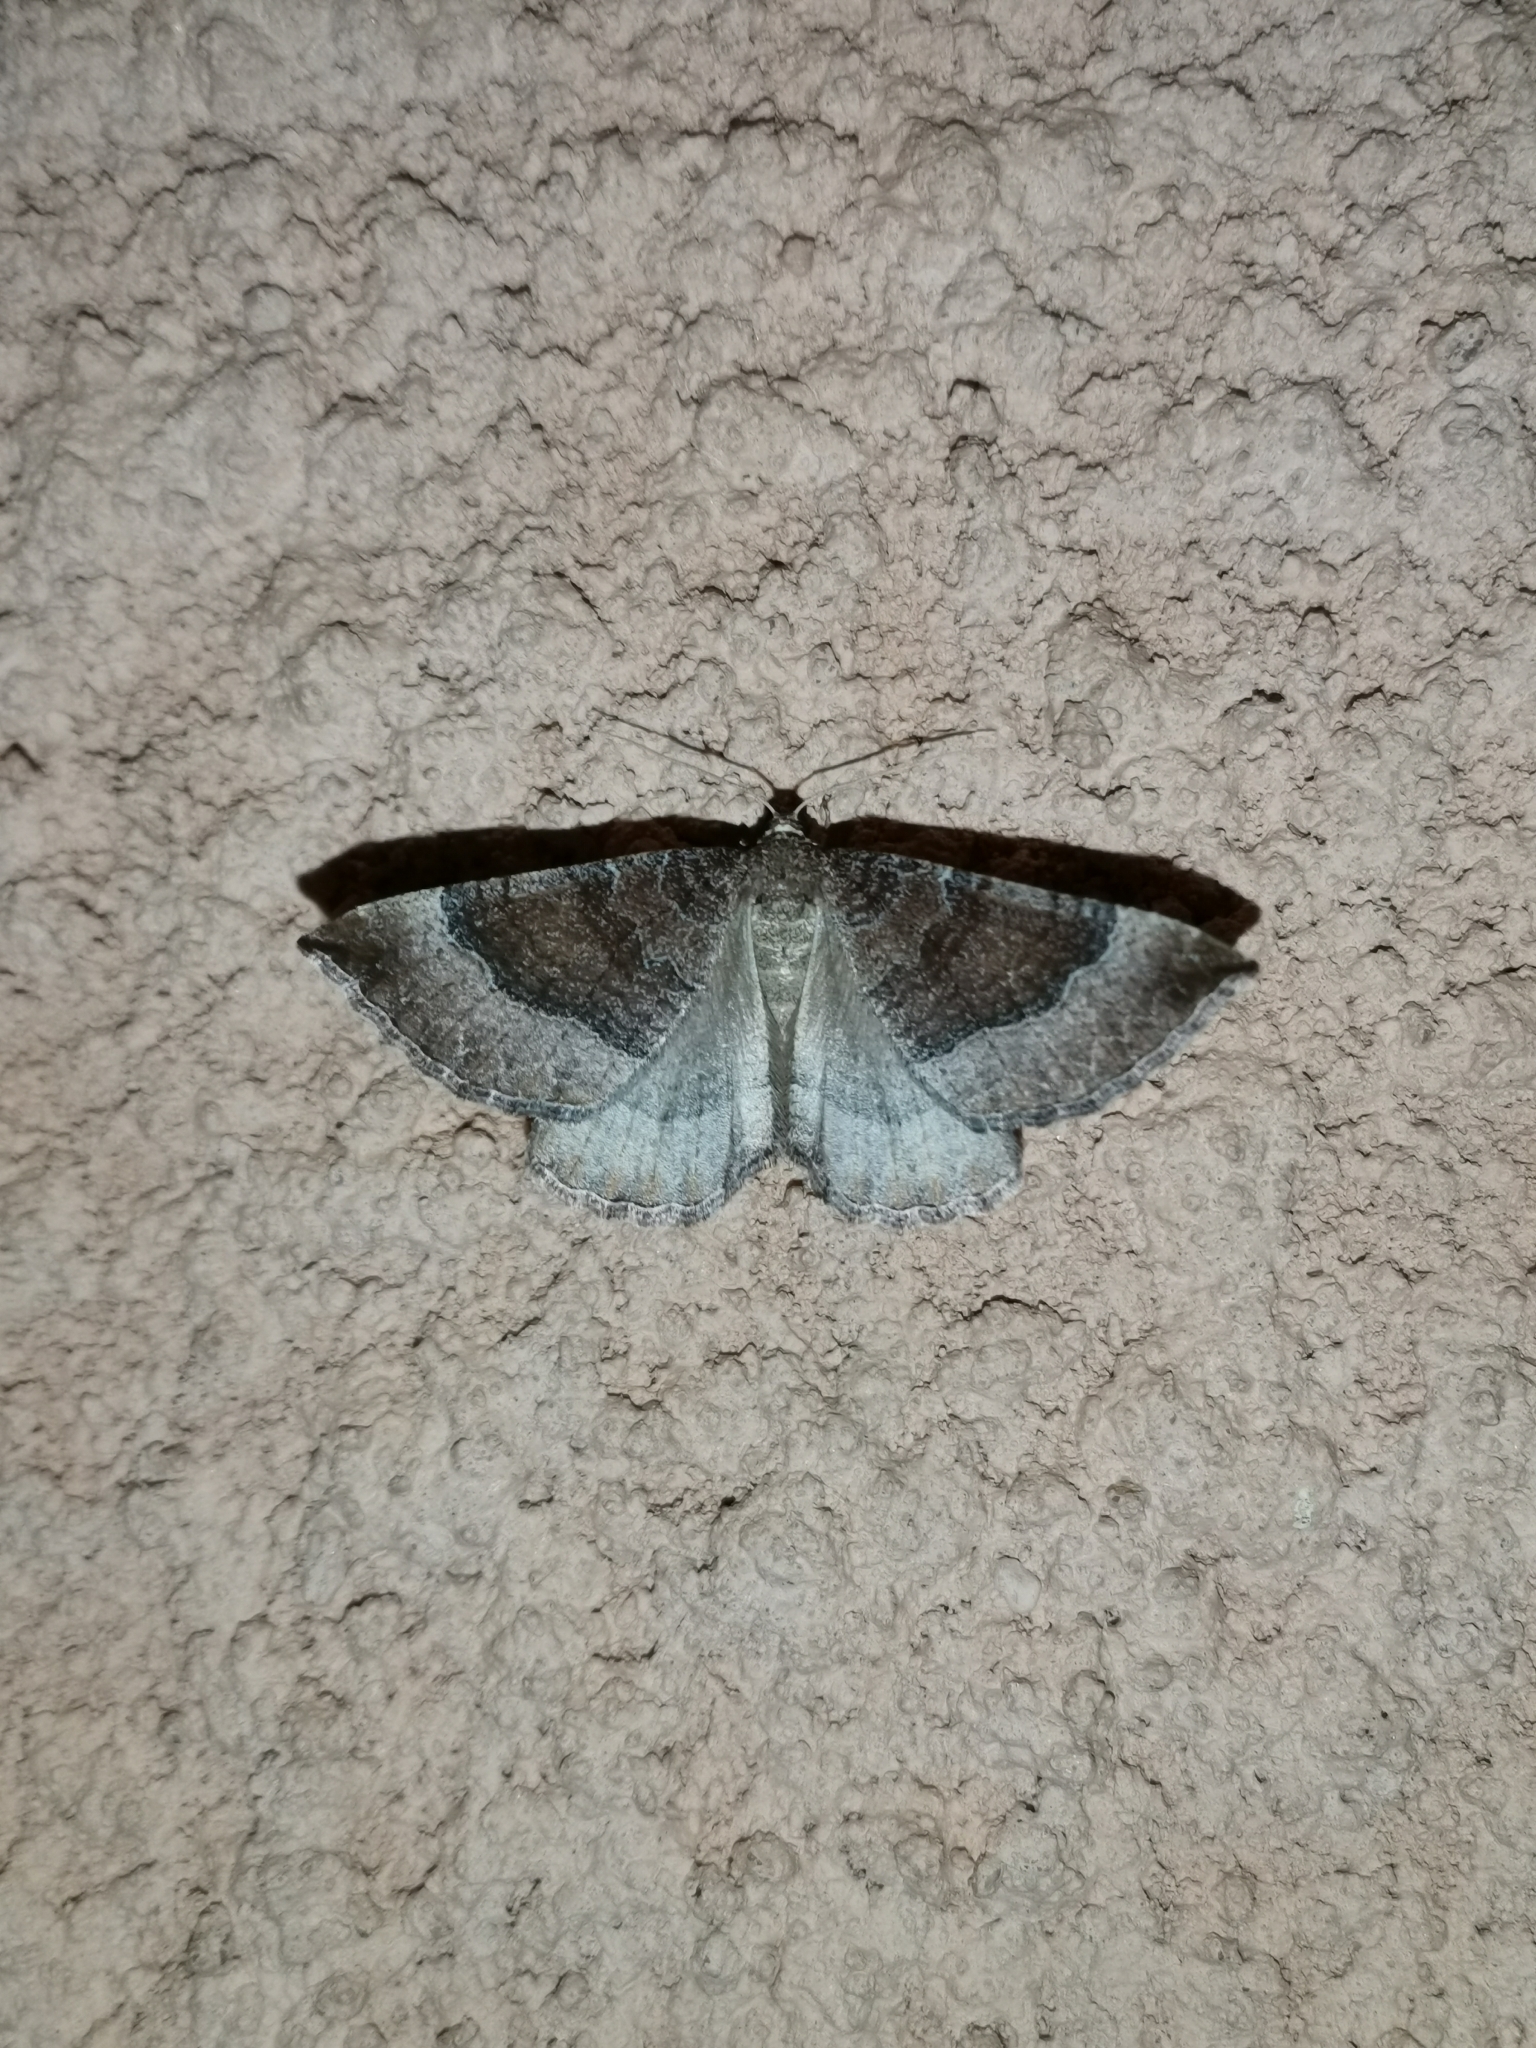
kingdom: Animalia
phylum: Arthropoda
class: Insecta
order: Lepidoptera
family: Geometridae
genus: Larentia
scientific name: Larentia clavaria
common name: Mallow
